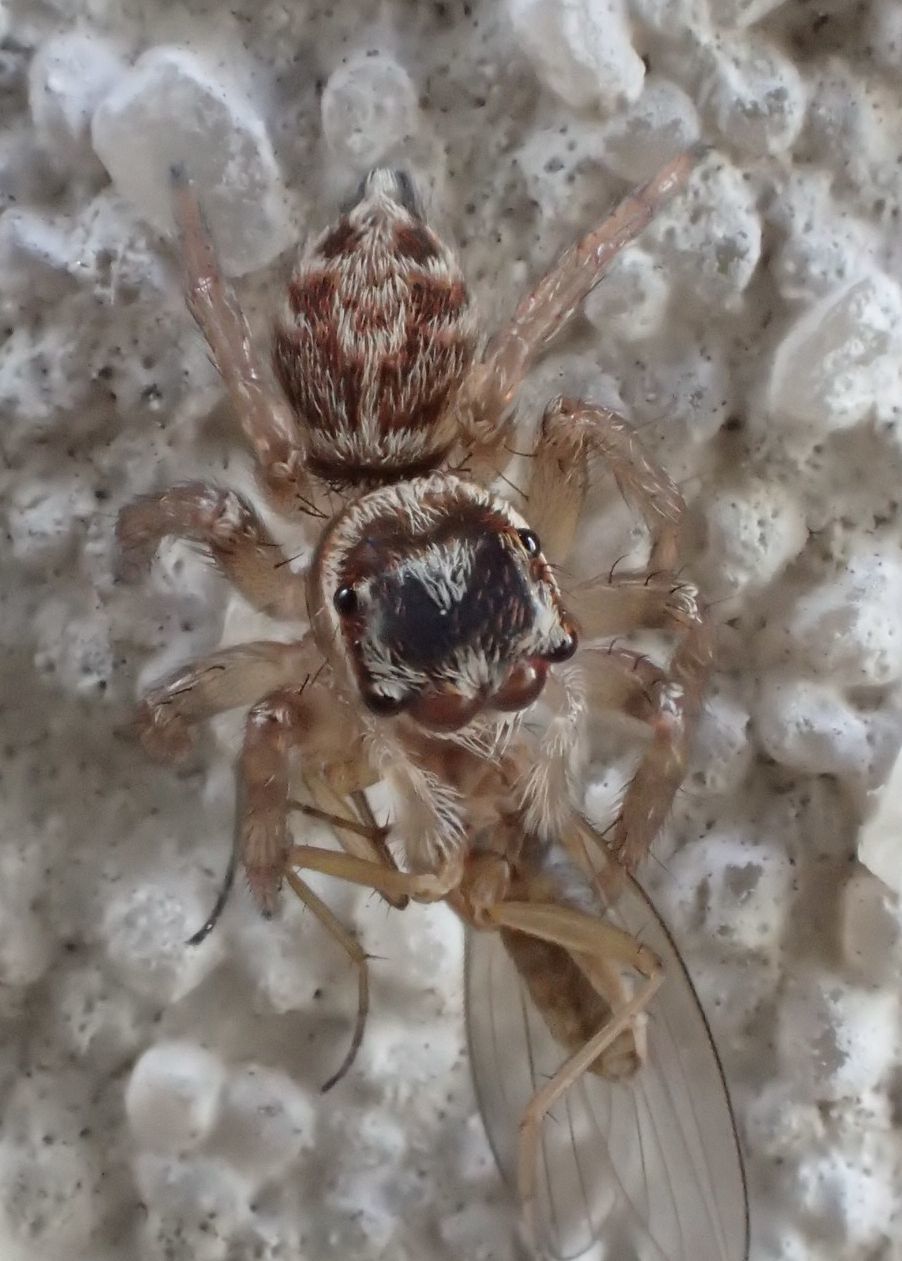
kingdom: Animalia
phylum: Arthropoda
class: Arachnida
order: Araneae
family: Salticidae
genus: Maratus
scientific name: Maratus griseus
